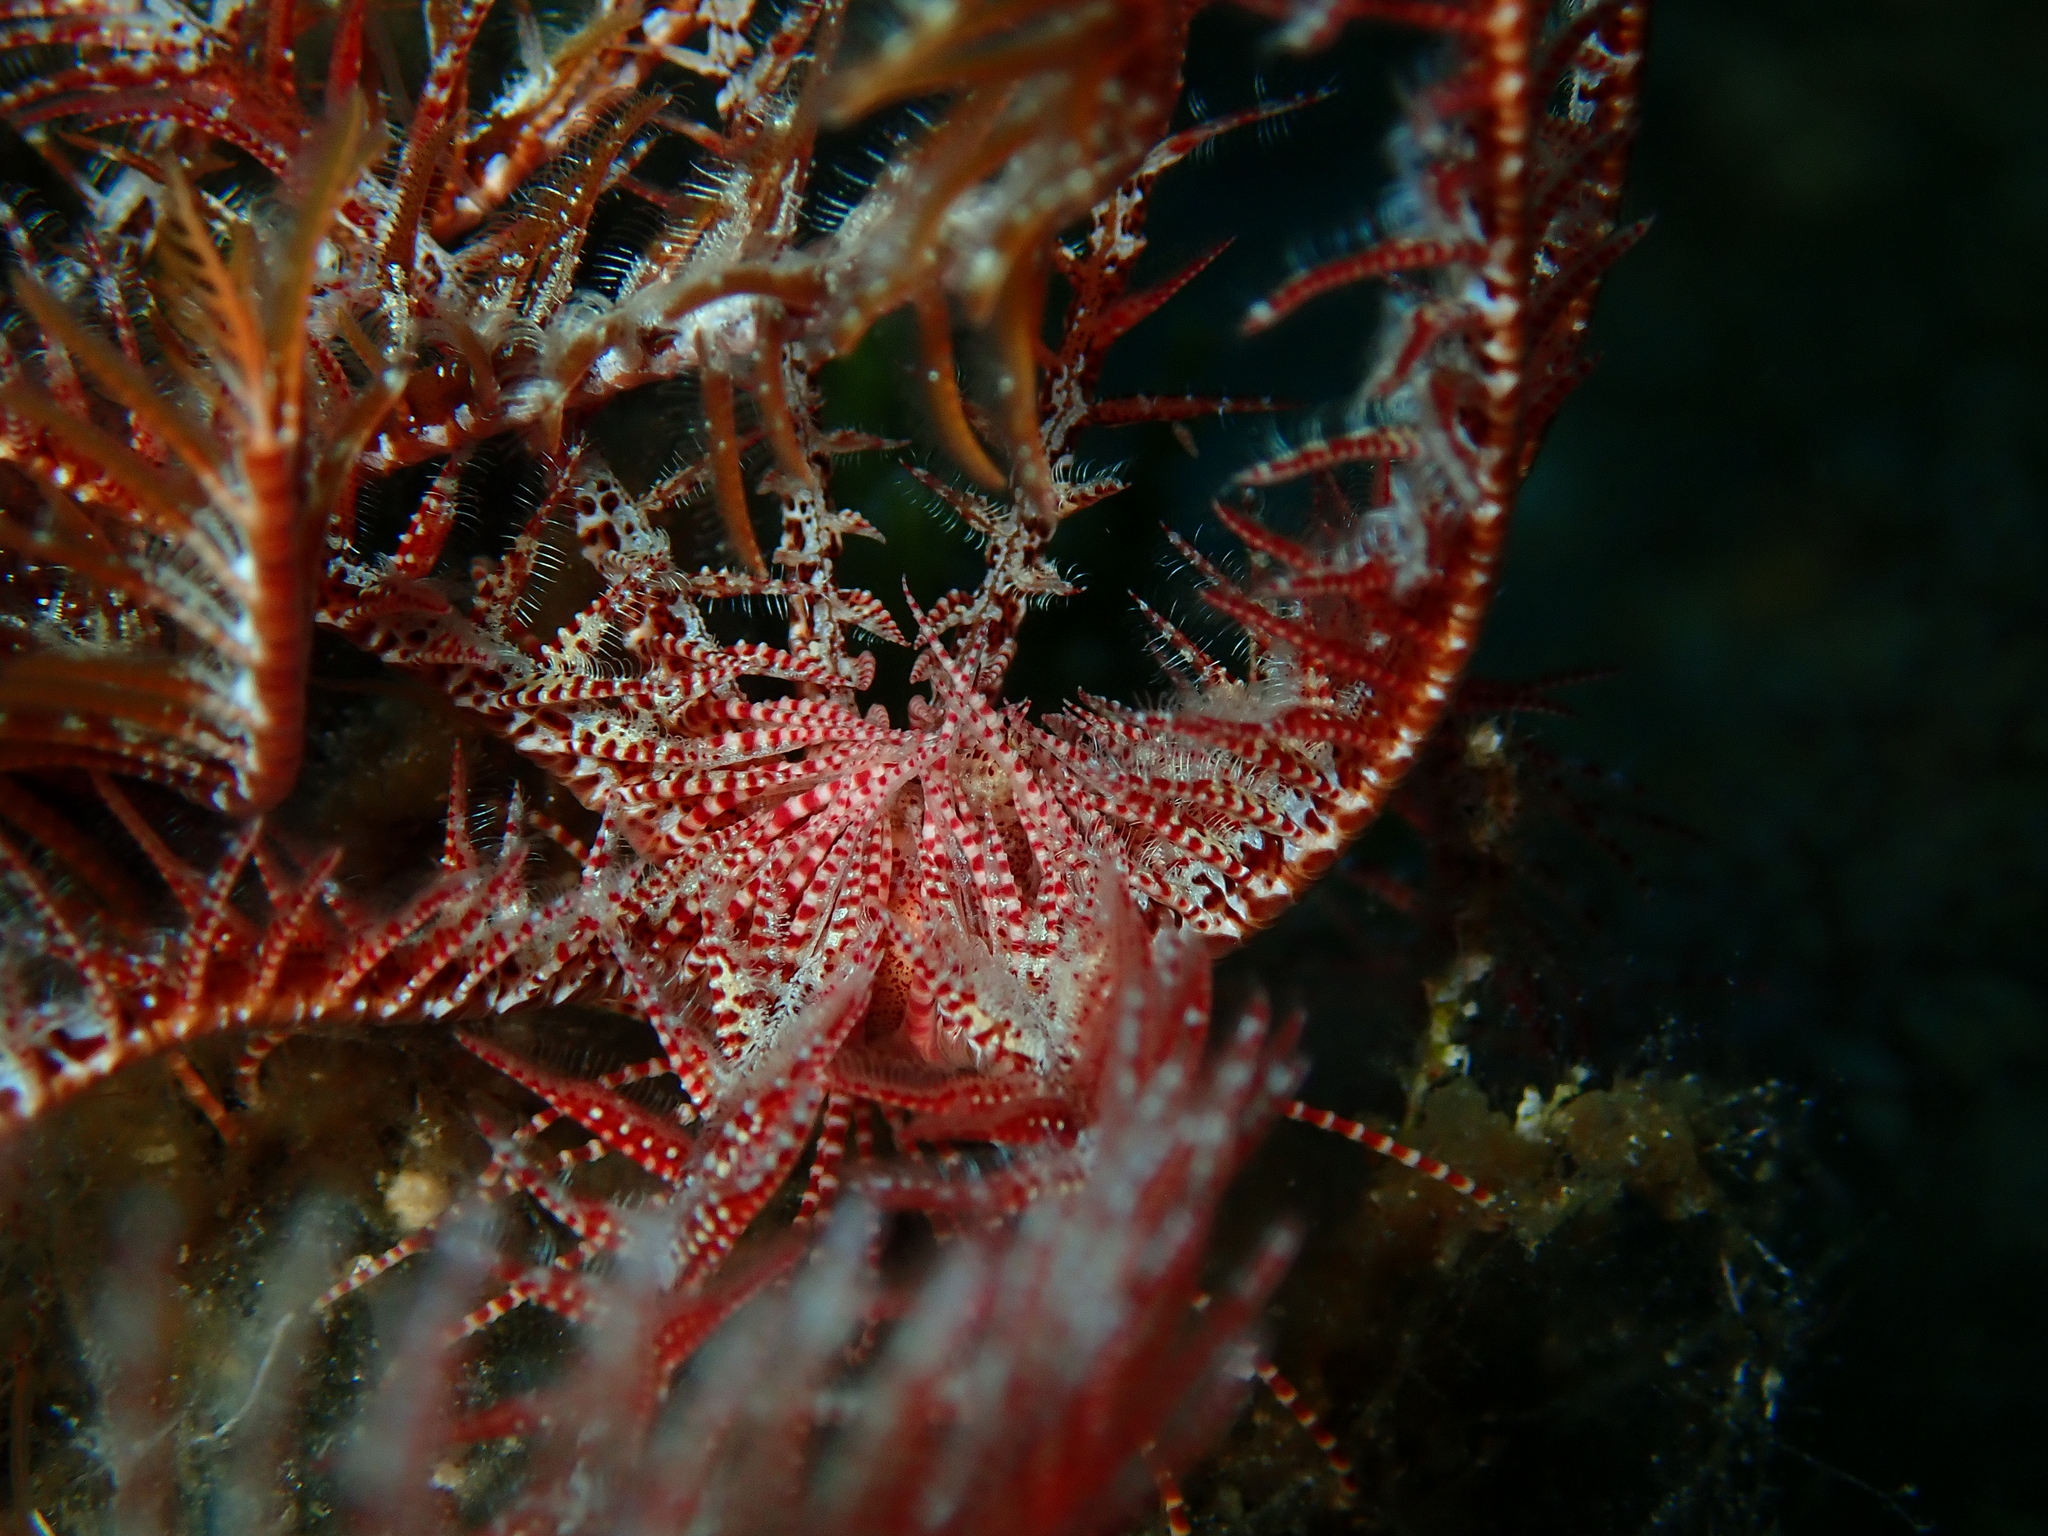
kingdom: Animalia
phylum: Echinodermata
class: Crinoidea
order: Comatulida
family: Antedonidae
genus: Antedon
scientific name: Antedon mediterranea
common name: Feather star
